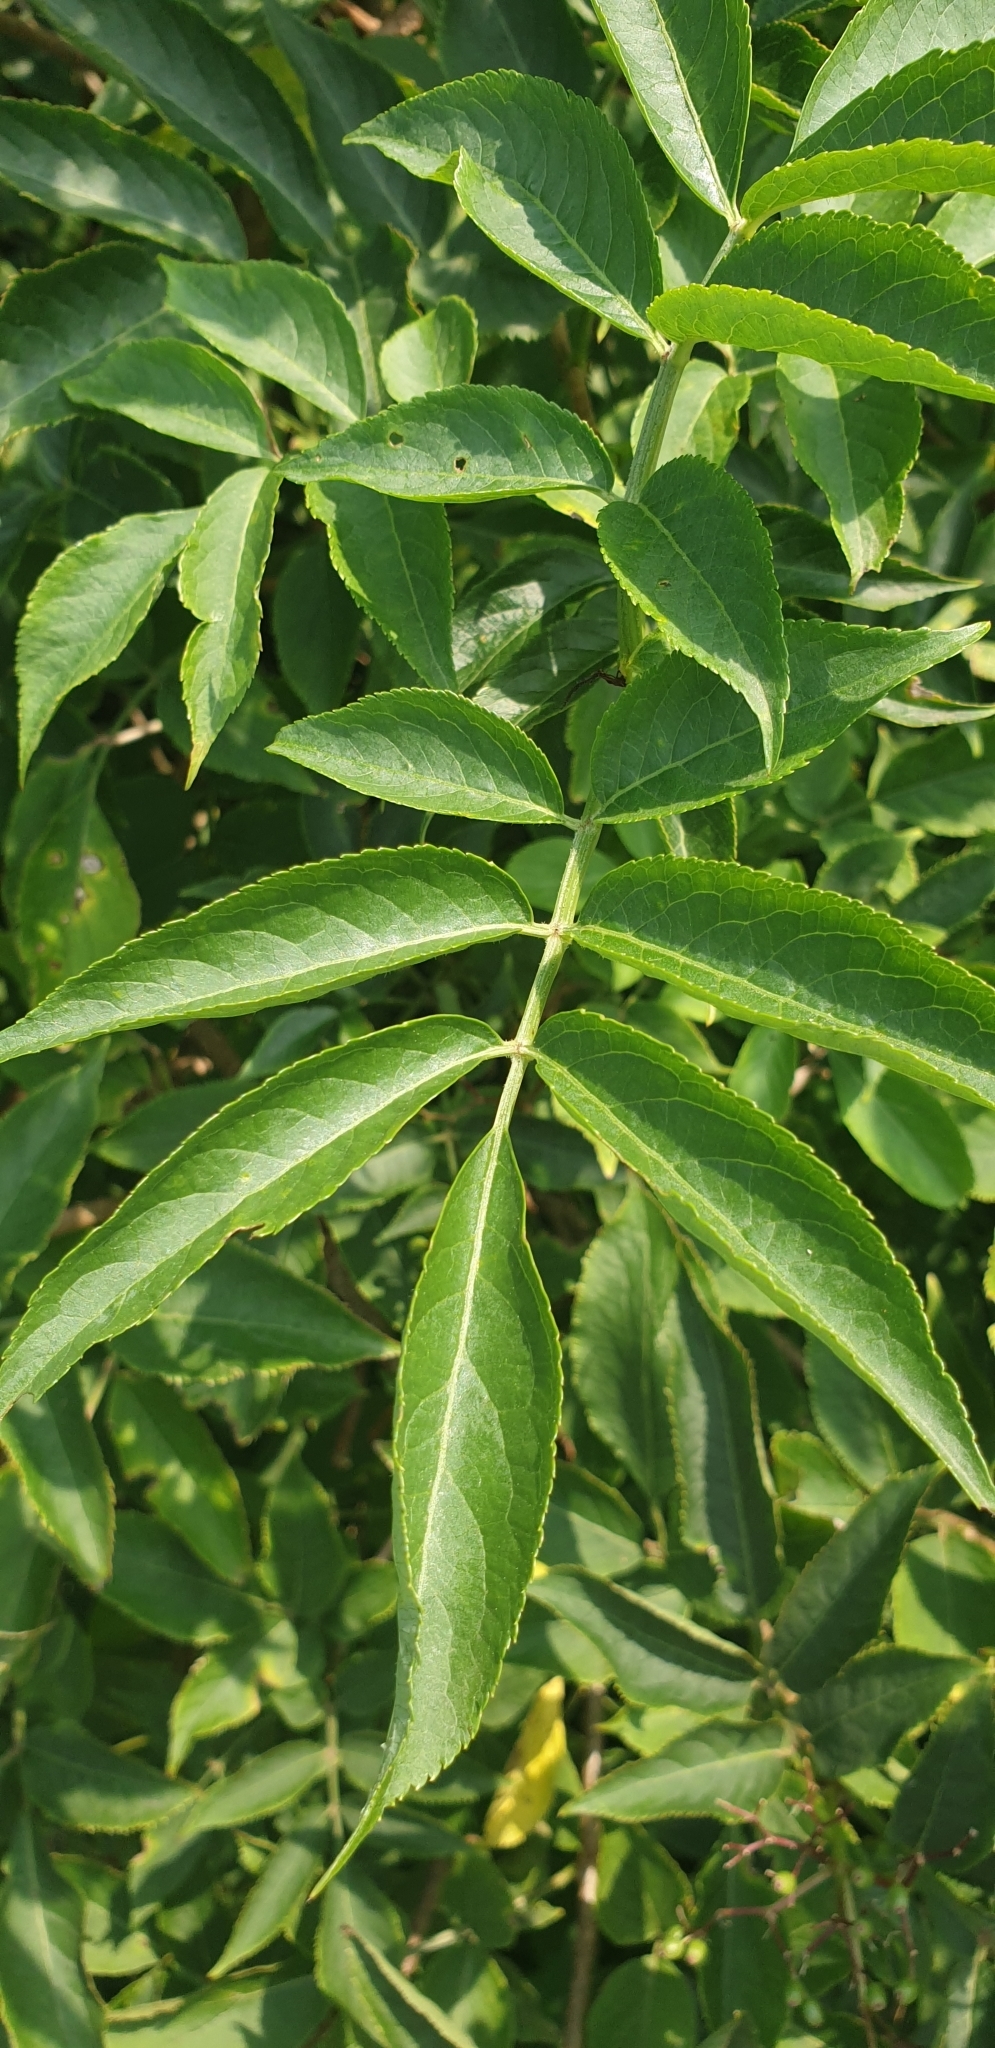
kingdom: Plantae
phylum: Tracheophyta
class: Magnoliopsida
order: Dipsacales
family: Viburnaceae
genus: Sambucus
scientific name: Sambucus nigra
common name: Elder
